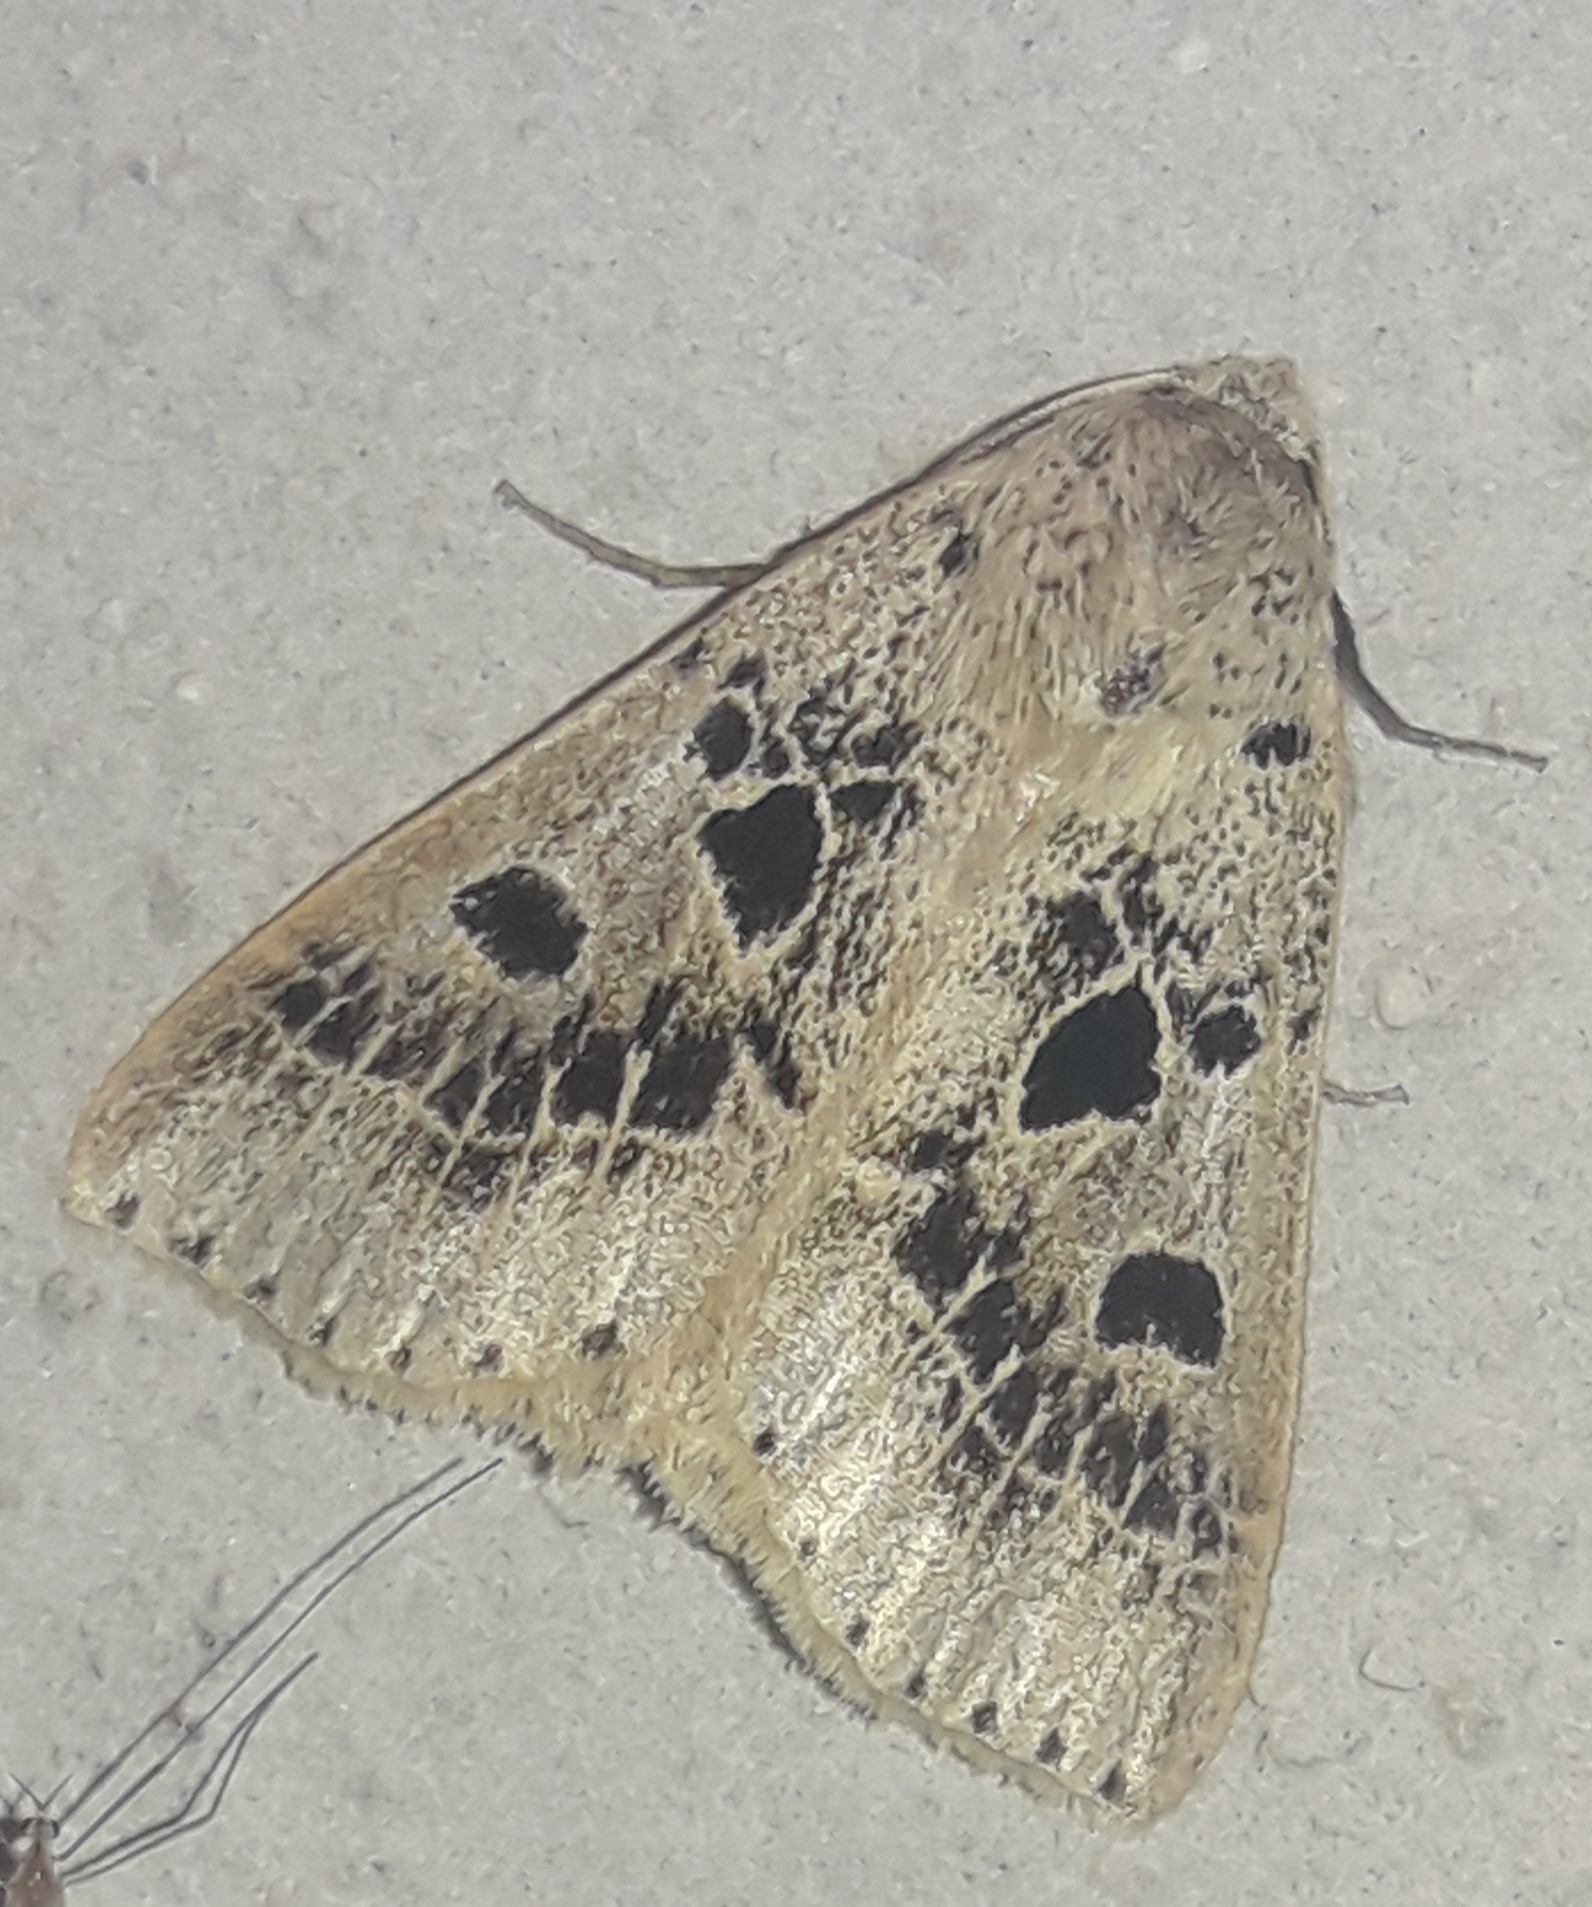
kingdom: Animalia
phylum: Arthropoda
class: Insecta
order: Lepidoptera
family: Erebidae
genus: Scolecocampa
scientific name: Scolecocampa Herminodes atrosignata
